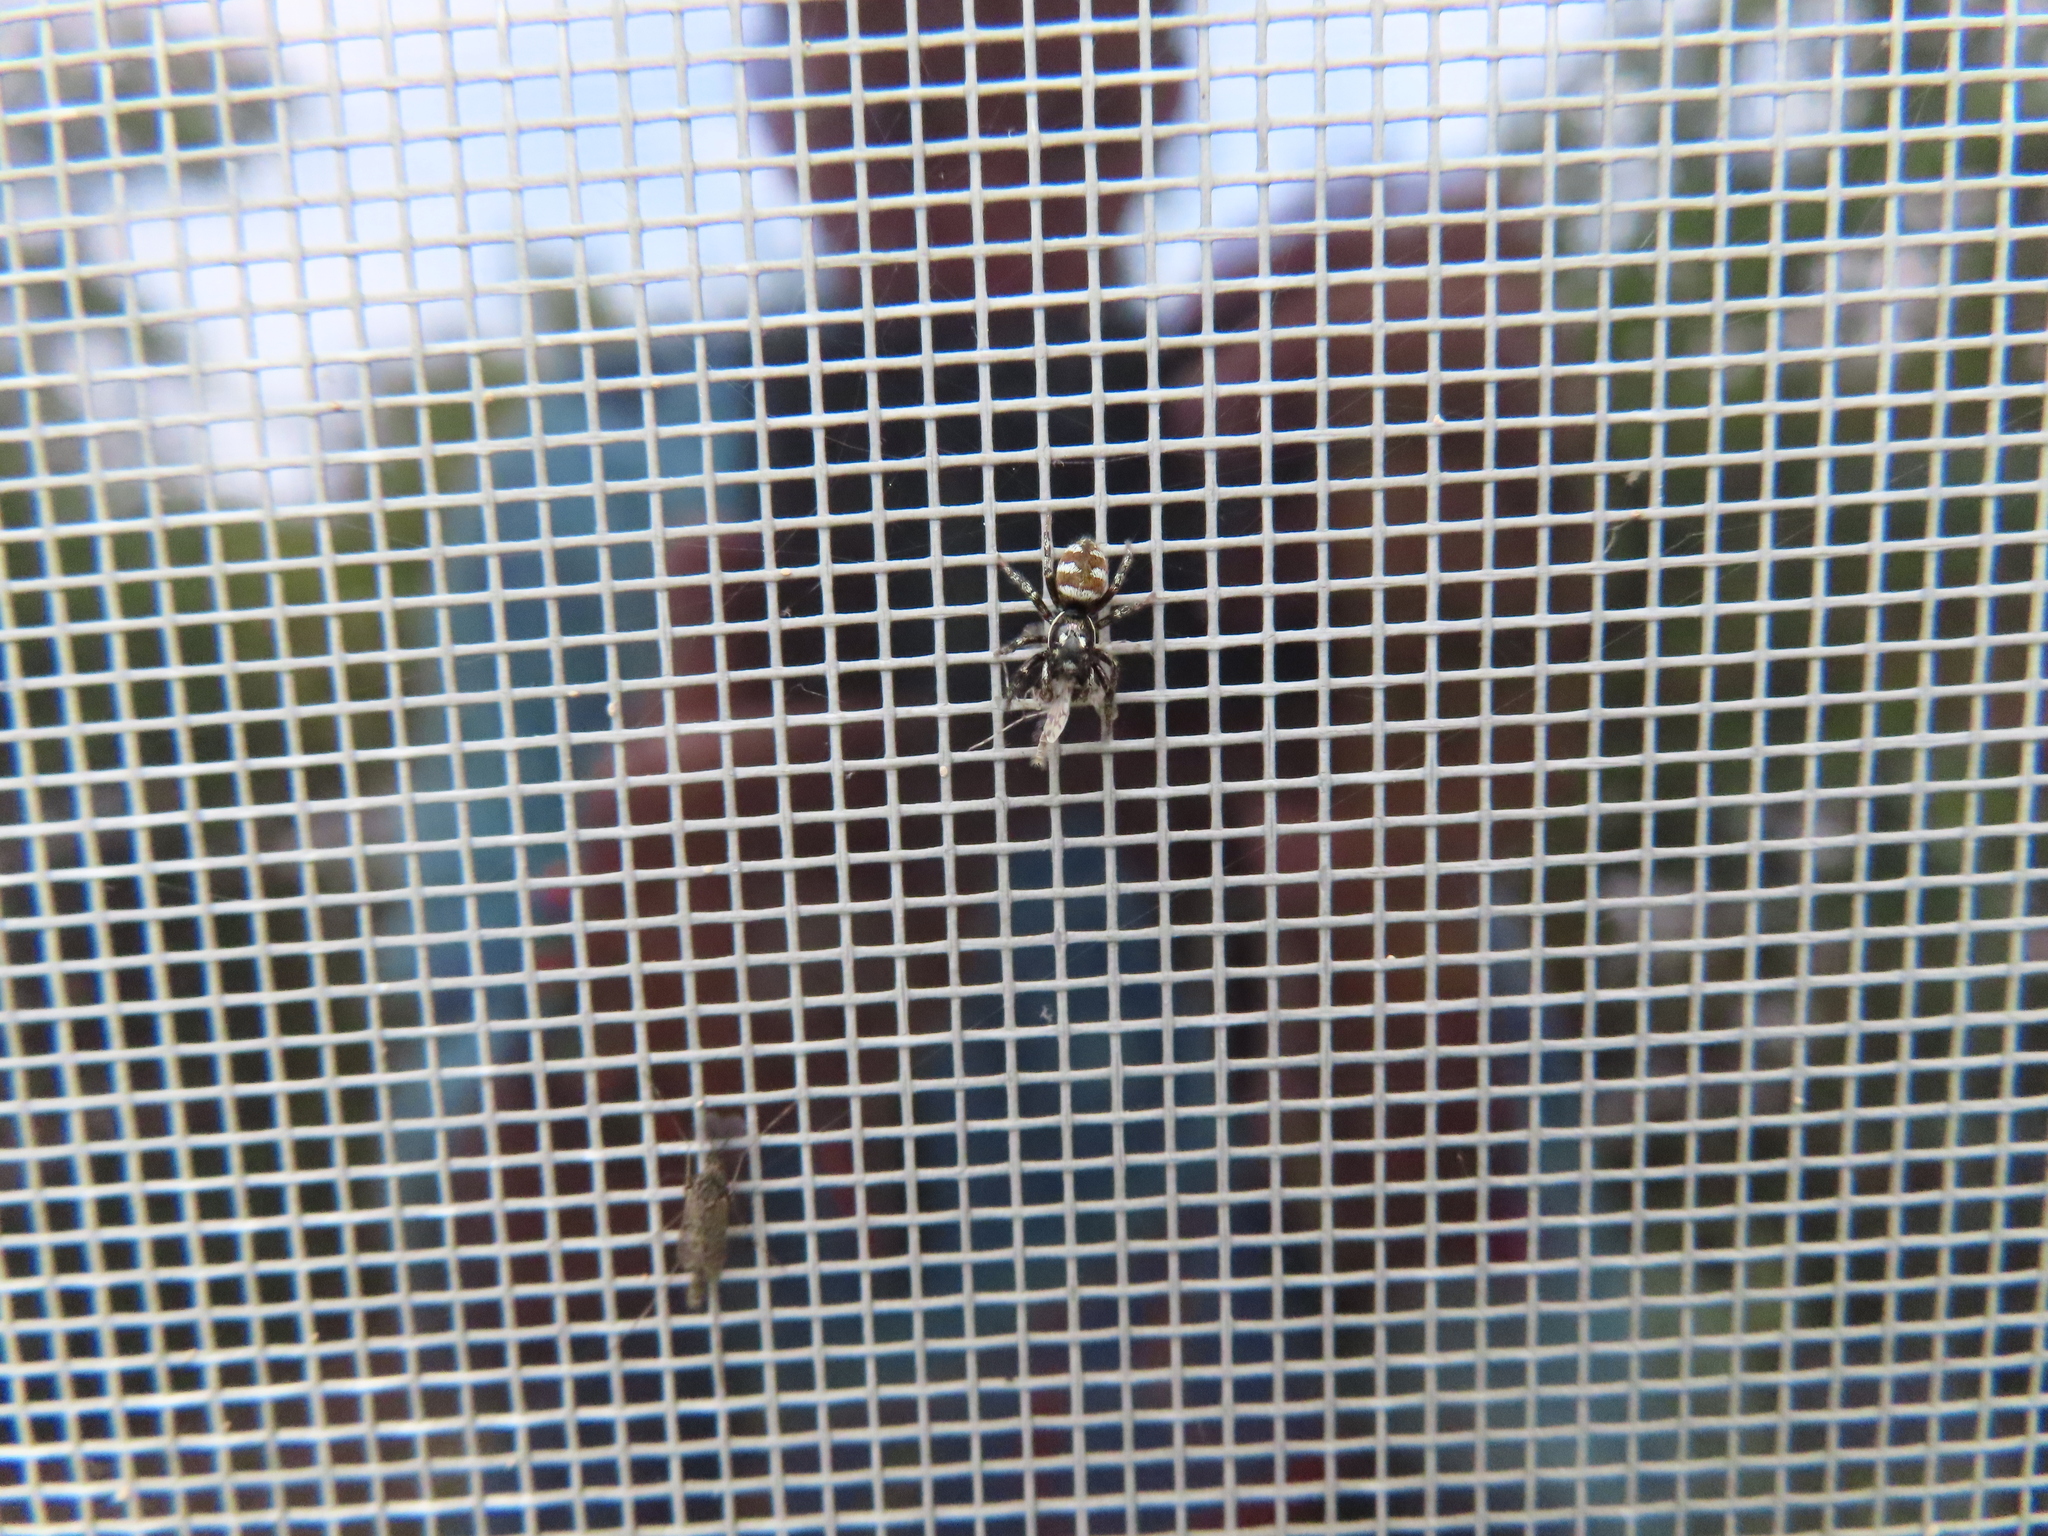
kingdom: Animalia
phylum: Arthropoda
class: Arachnida
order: Araneae
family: Salticidae
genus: Salticus
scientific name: Salticus scenicus
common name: Zebra jumper
